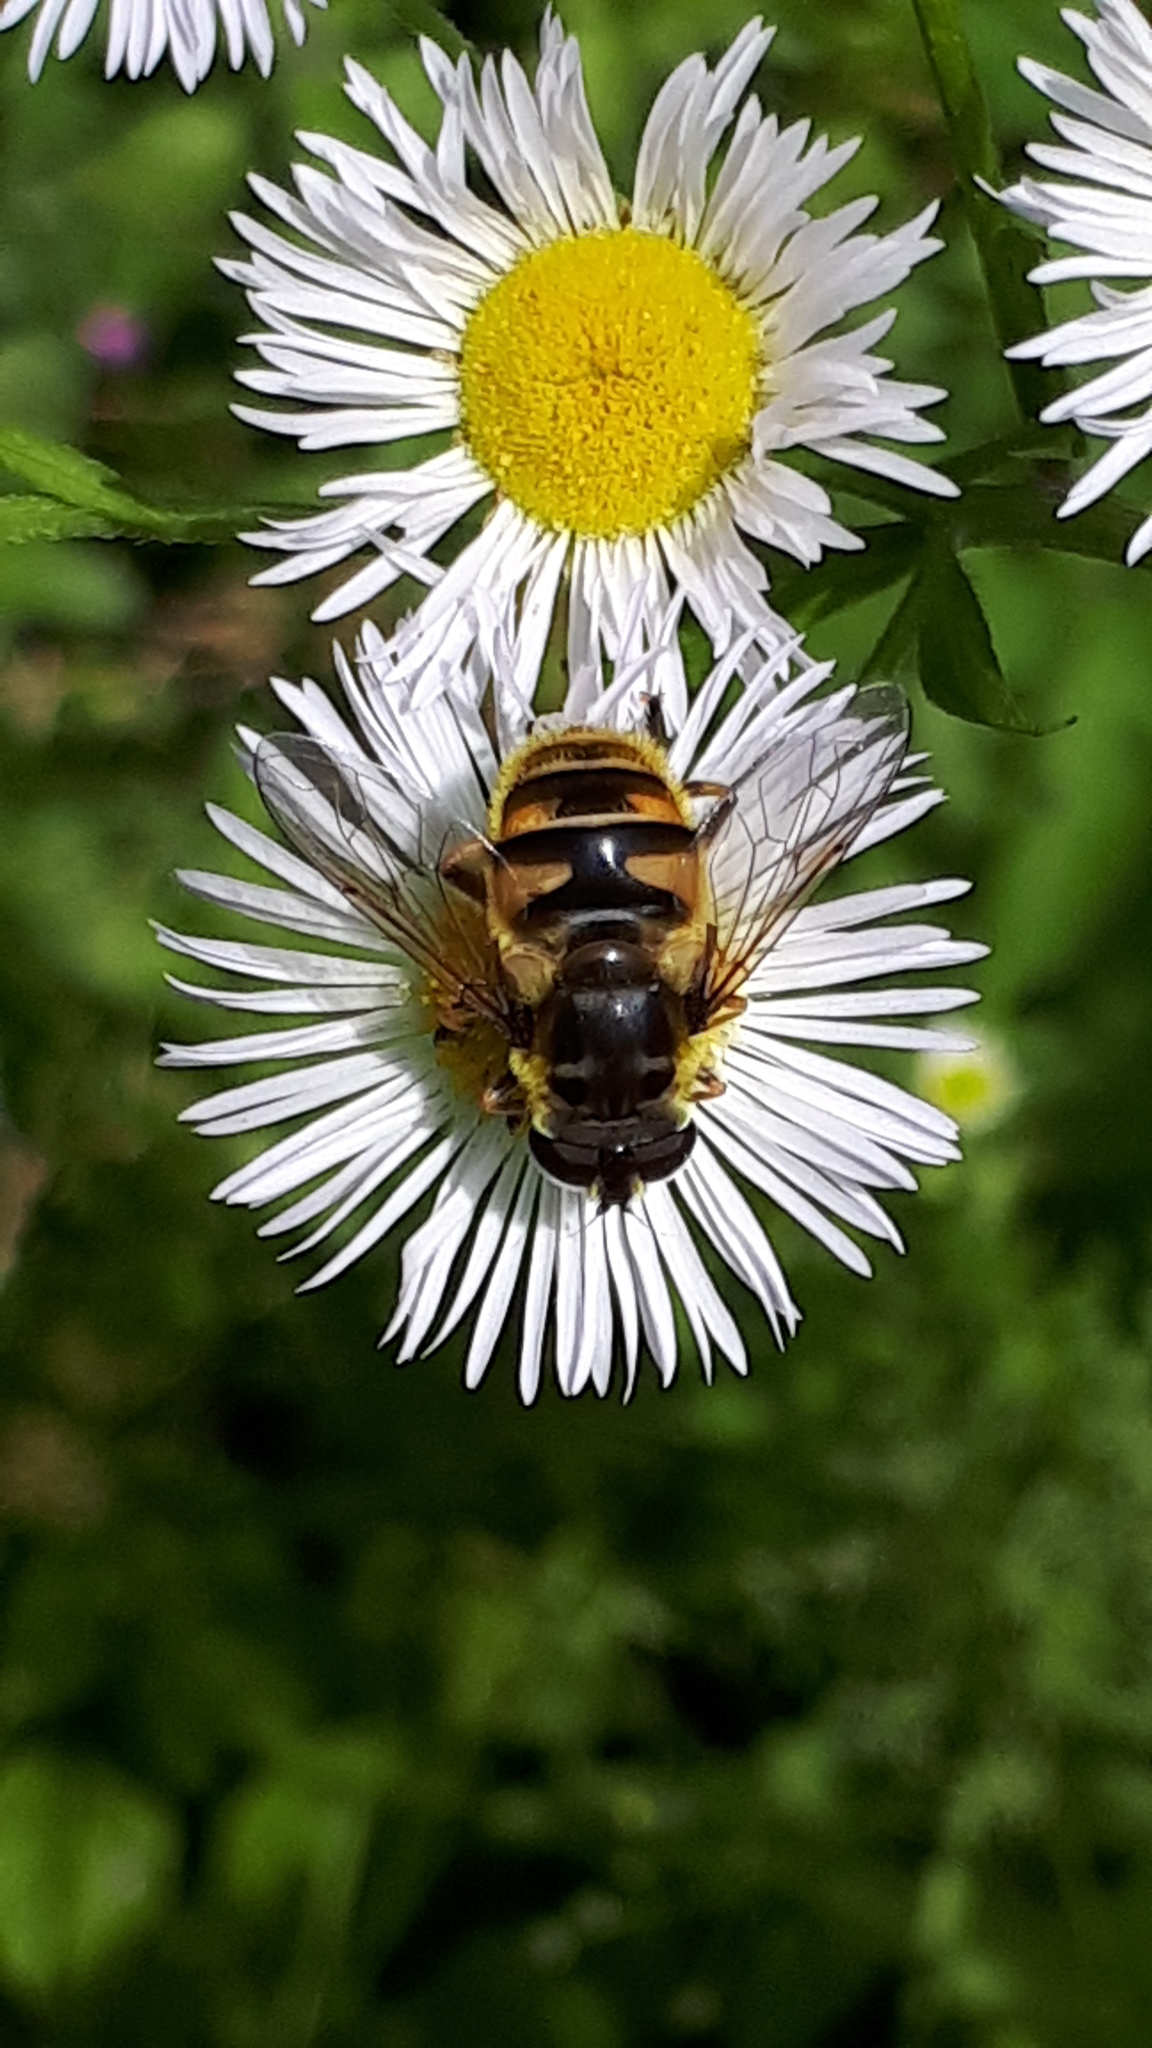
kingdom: Animalia
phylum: Arthropoda
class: Insecta
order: Diptera
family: Syrphidae
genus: Myathropa
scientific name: Myathropa florea
